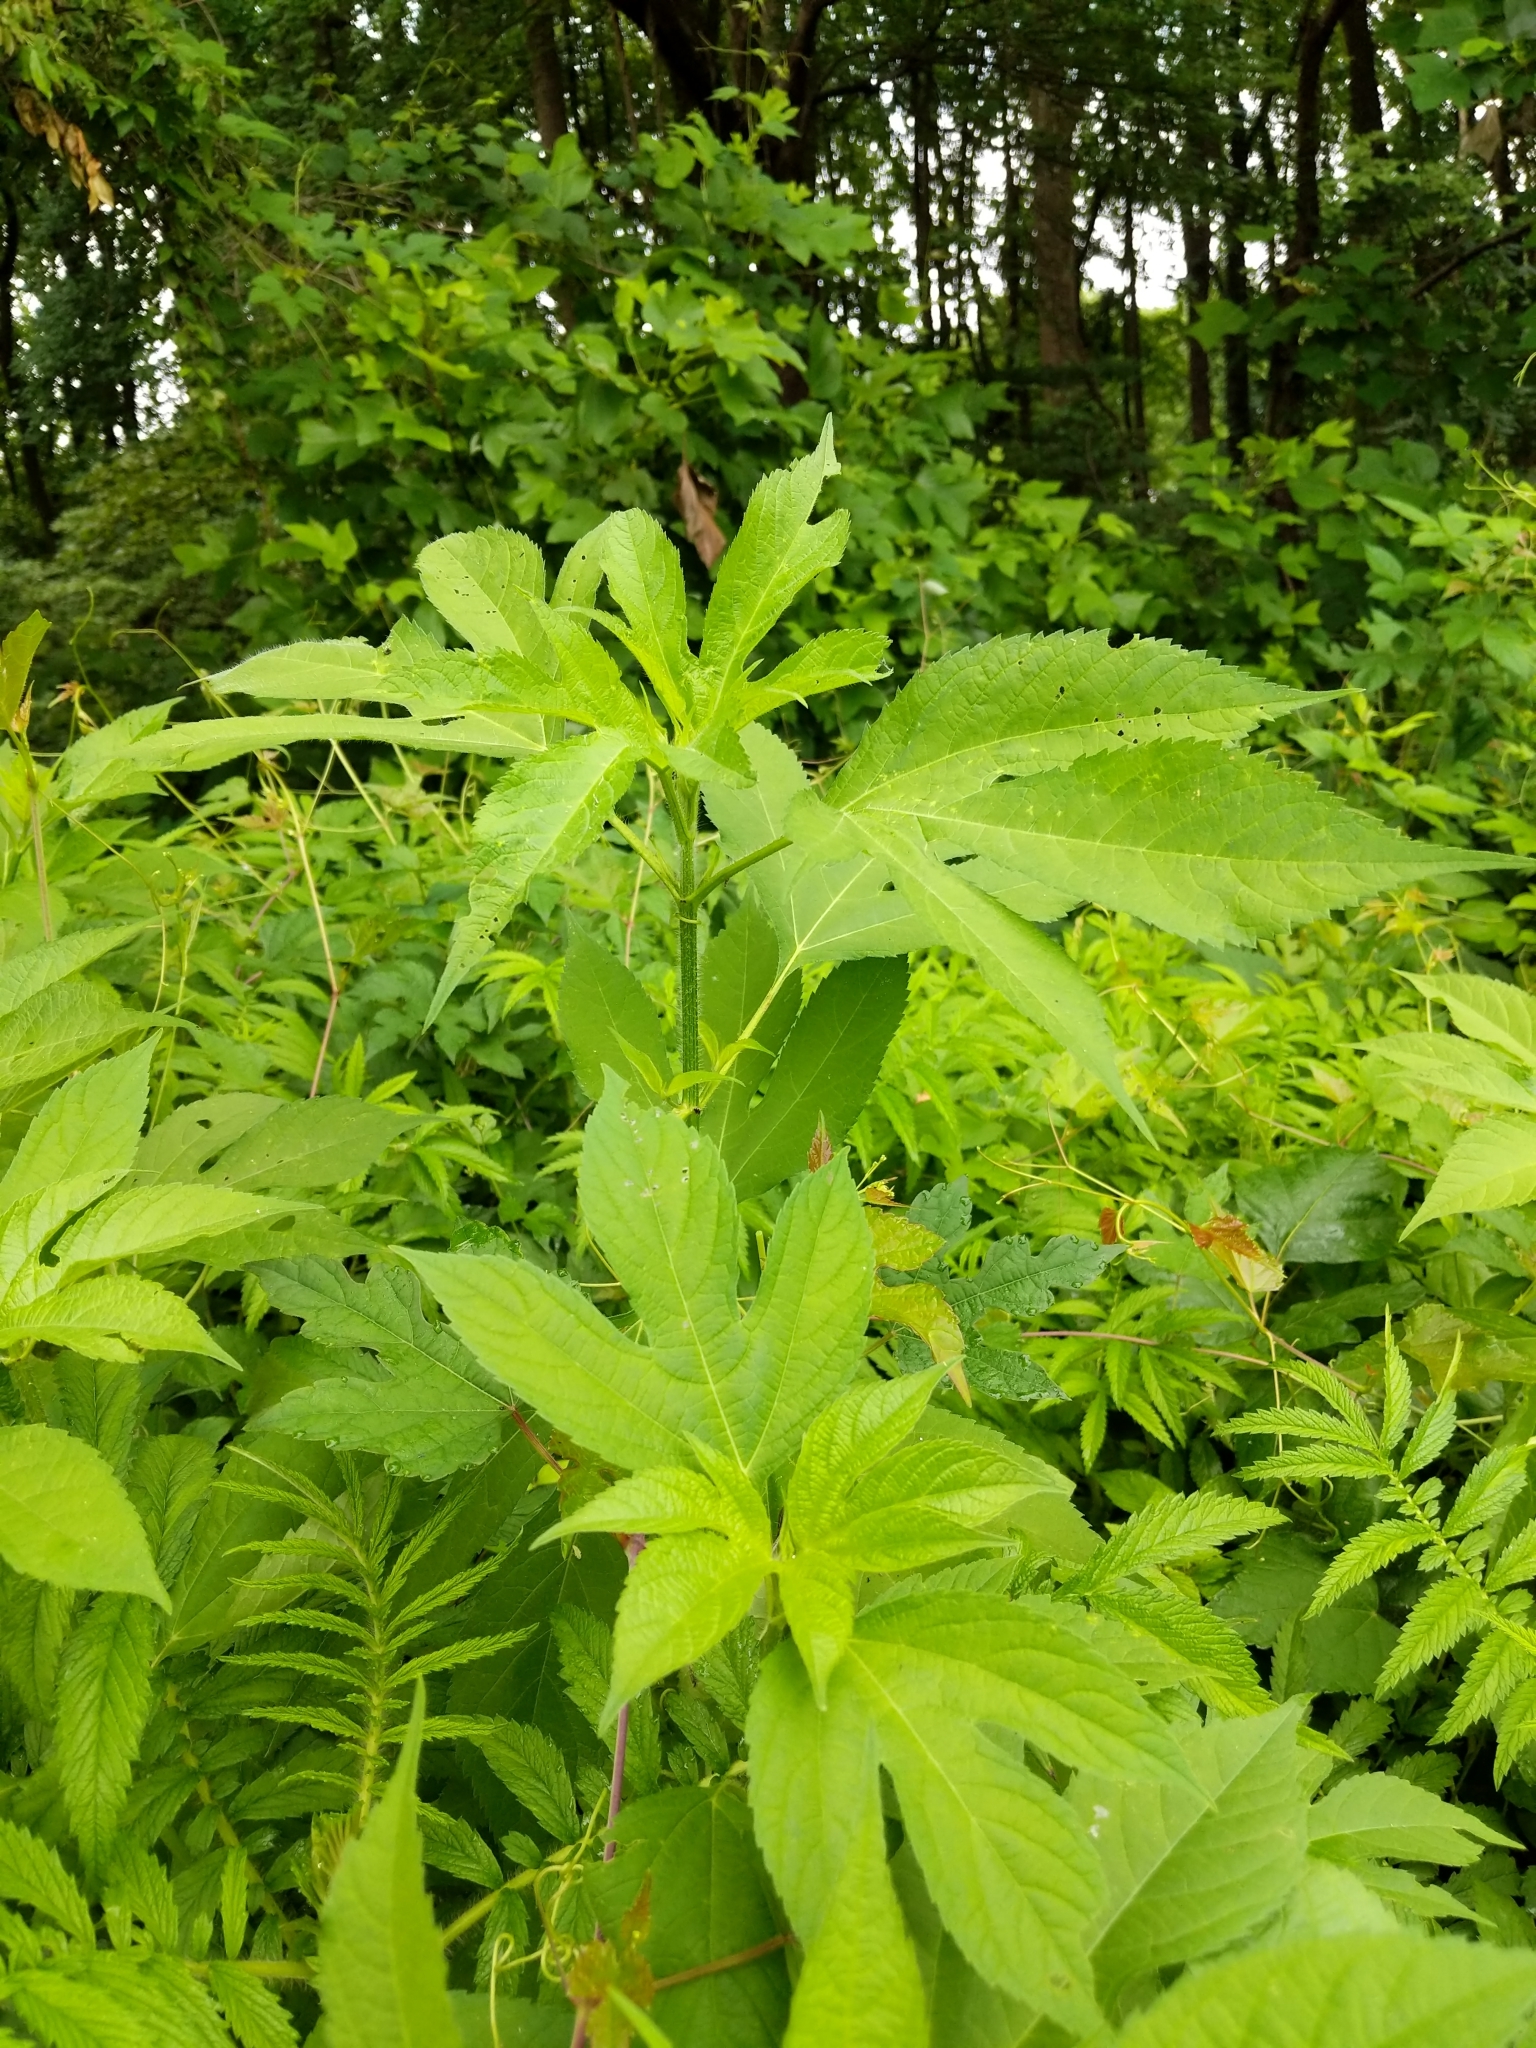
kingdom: Plantae
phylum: Tracheophyta
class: Magnoliopsida
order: Asterales
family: Asteraceae
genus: Ambrosia
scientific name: Ambrosia trifida
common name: Giant ragweed
